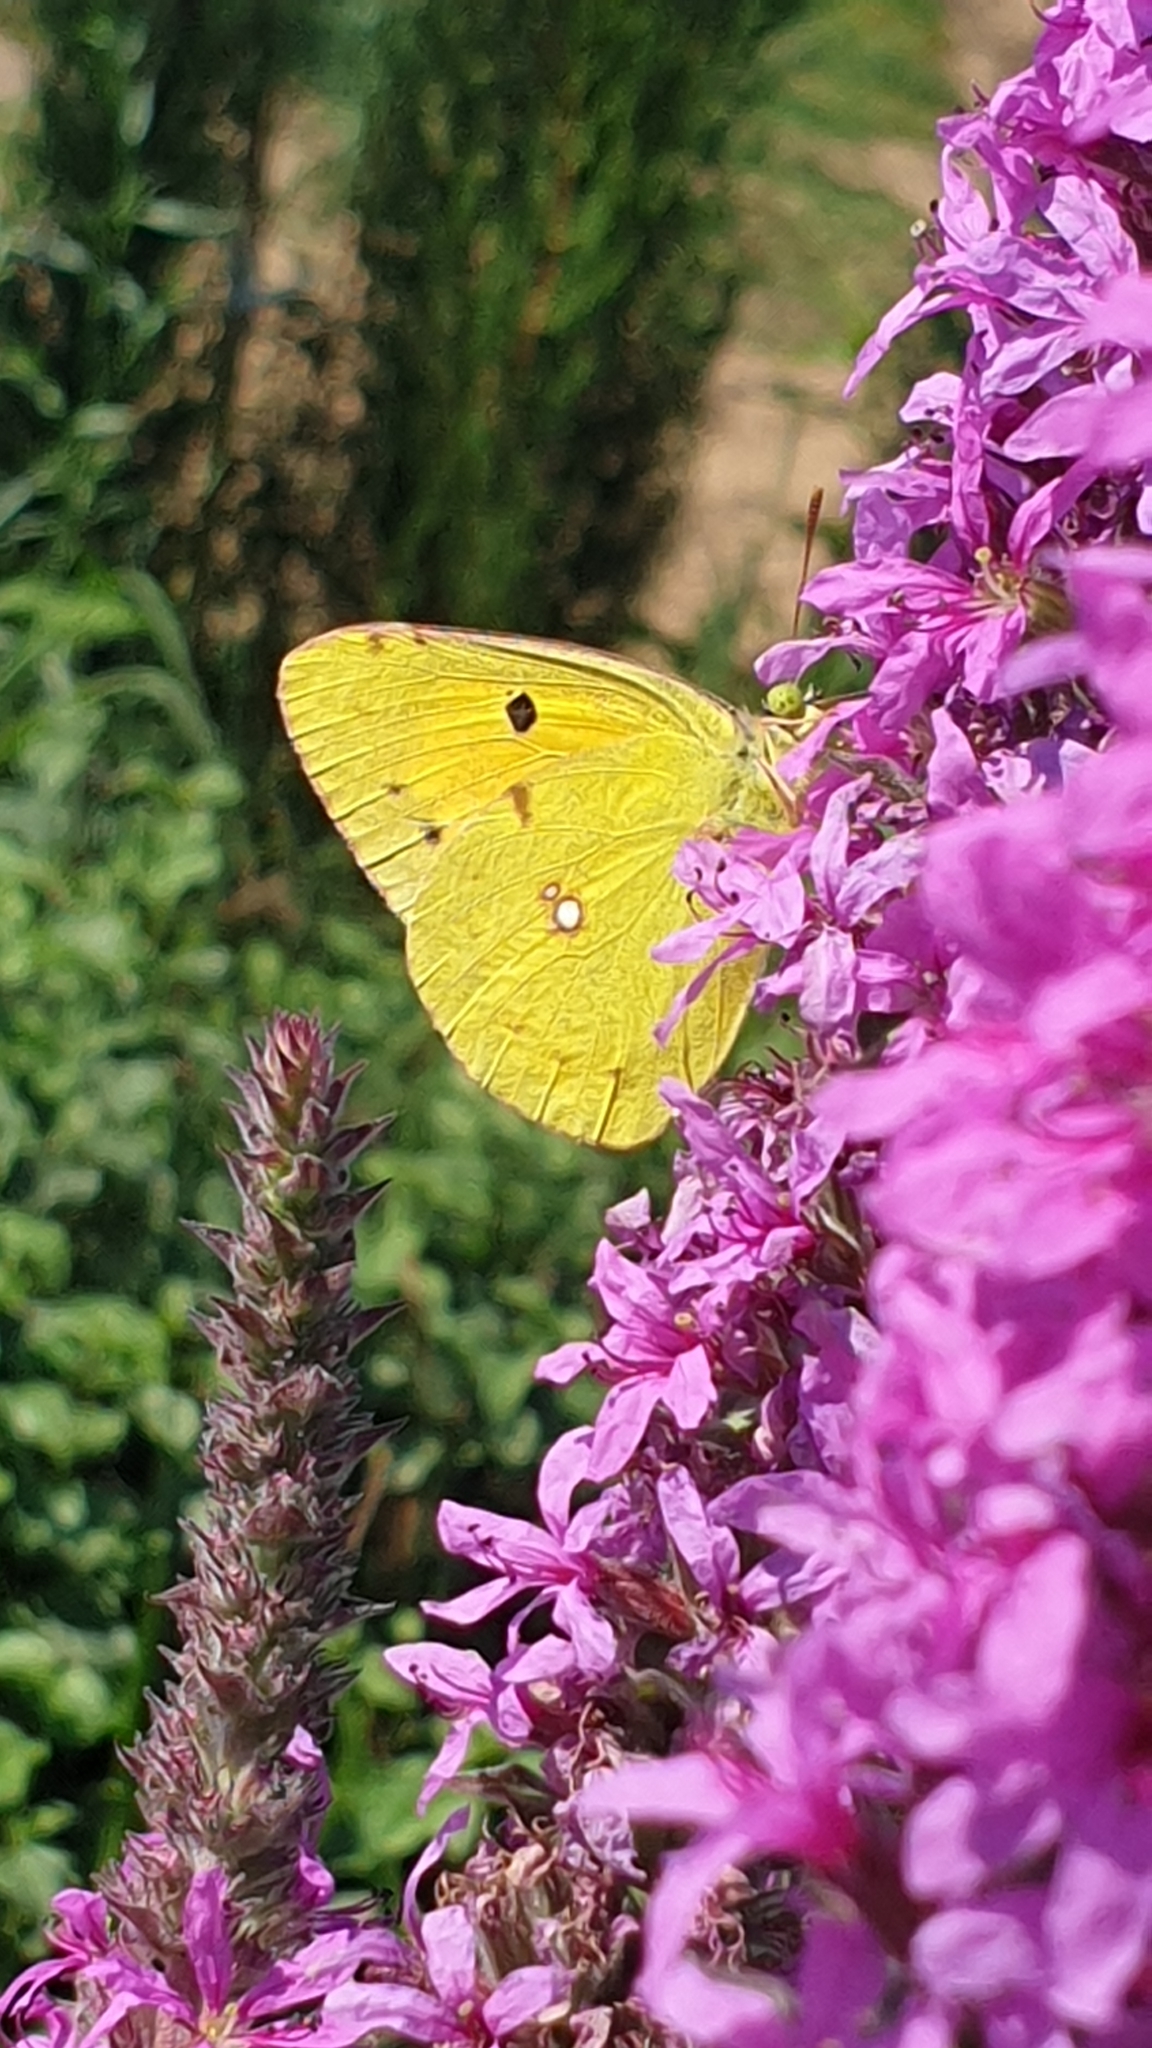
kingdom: Animalia
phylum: Arthropoda
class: Insecta
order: Lepidoptera
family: Pieridae
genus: Colias
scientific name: Colias croceus
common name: Clouded yellow
